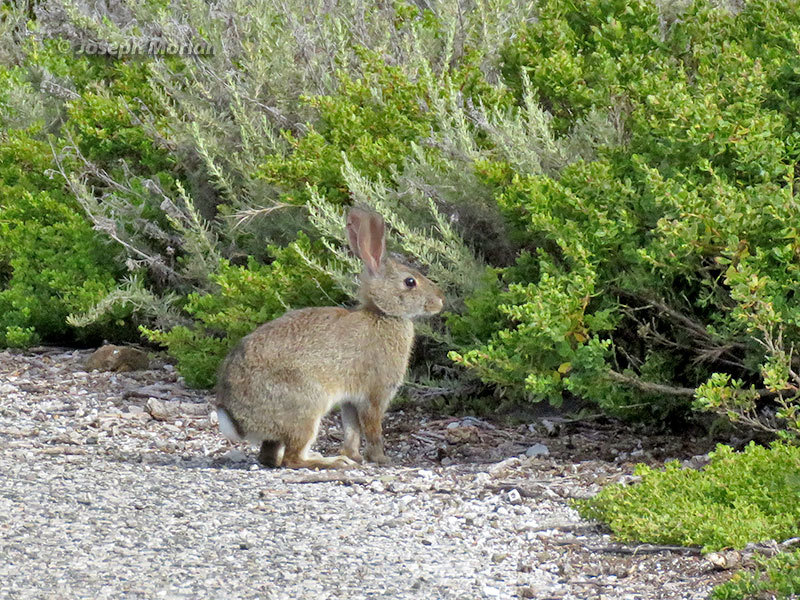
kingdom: Animalia
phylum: Chordata
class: Mammalia
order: Lagomorpha
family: Leporidae
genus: Sylvilagus
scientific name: Sylvilagus bachmani
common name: Brush rabbit
